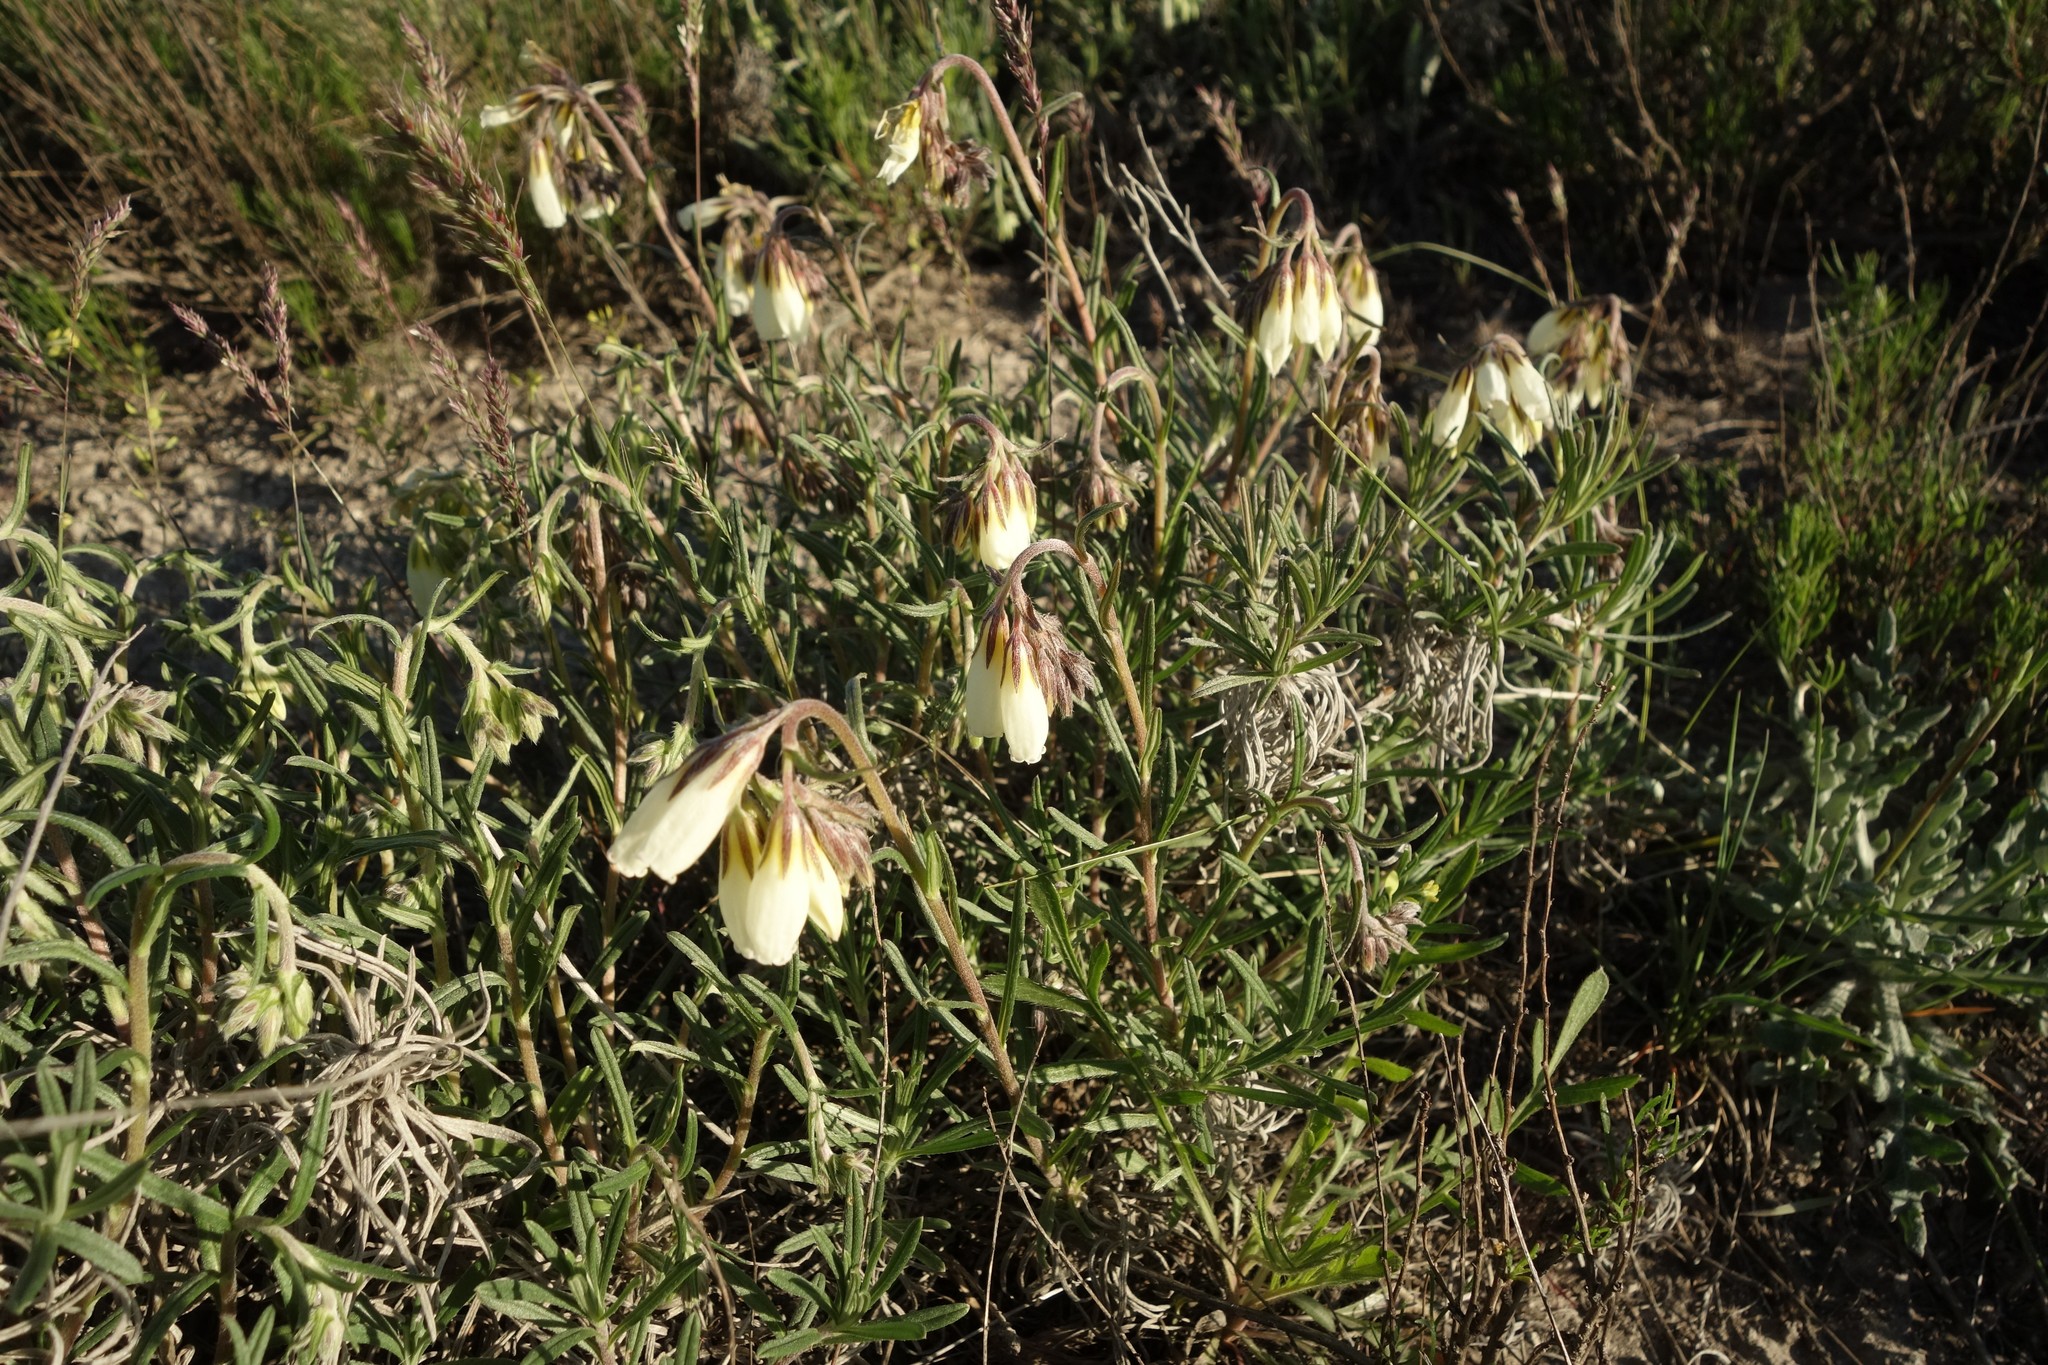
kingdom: Plantae
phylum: Tracheophyta
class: Magnoliopsida
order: Boraginales
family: Boraginaceae
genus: Onosma
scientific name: Onosma simplicissima
